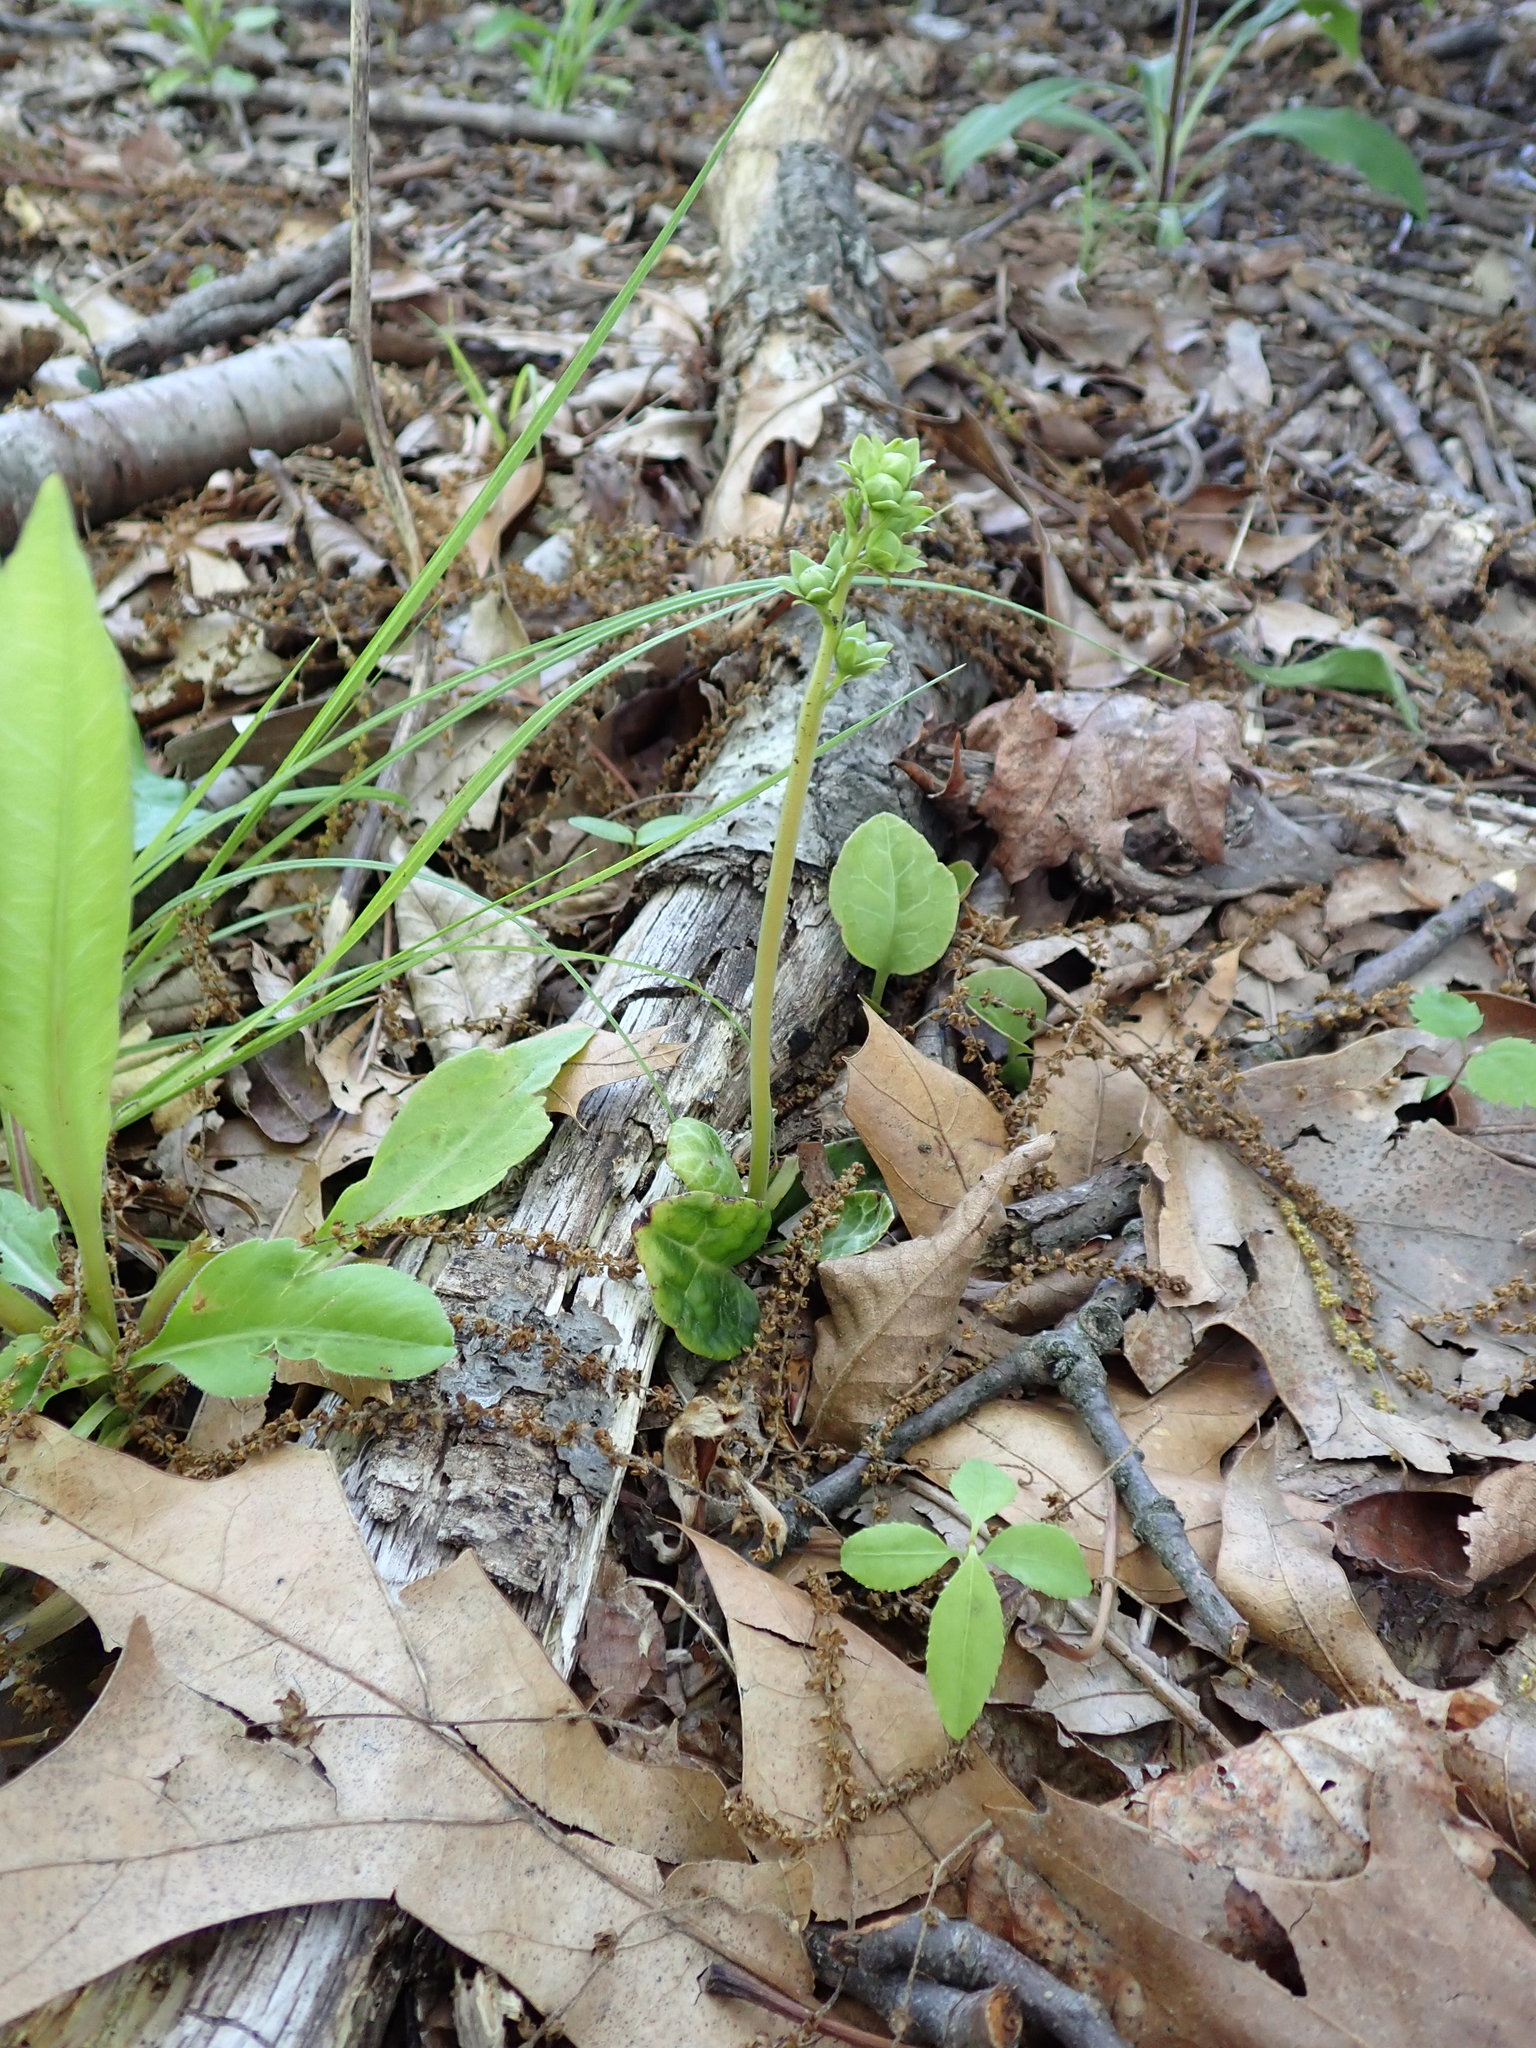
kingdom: Plantae
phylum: Tracheophyta
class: Magnoliopsida
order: Ericales
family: Ericaceae
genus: Pyrola
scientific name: Pyrola americana
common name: American wintergreen
